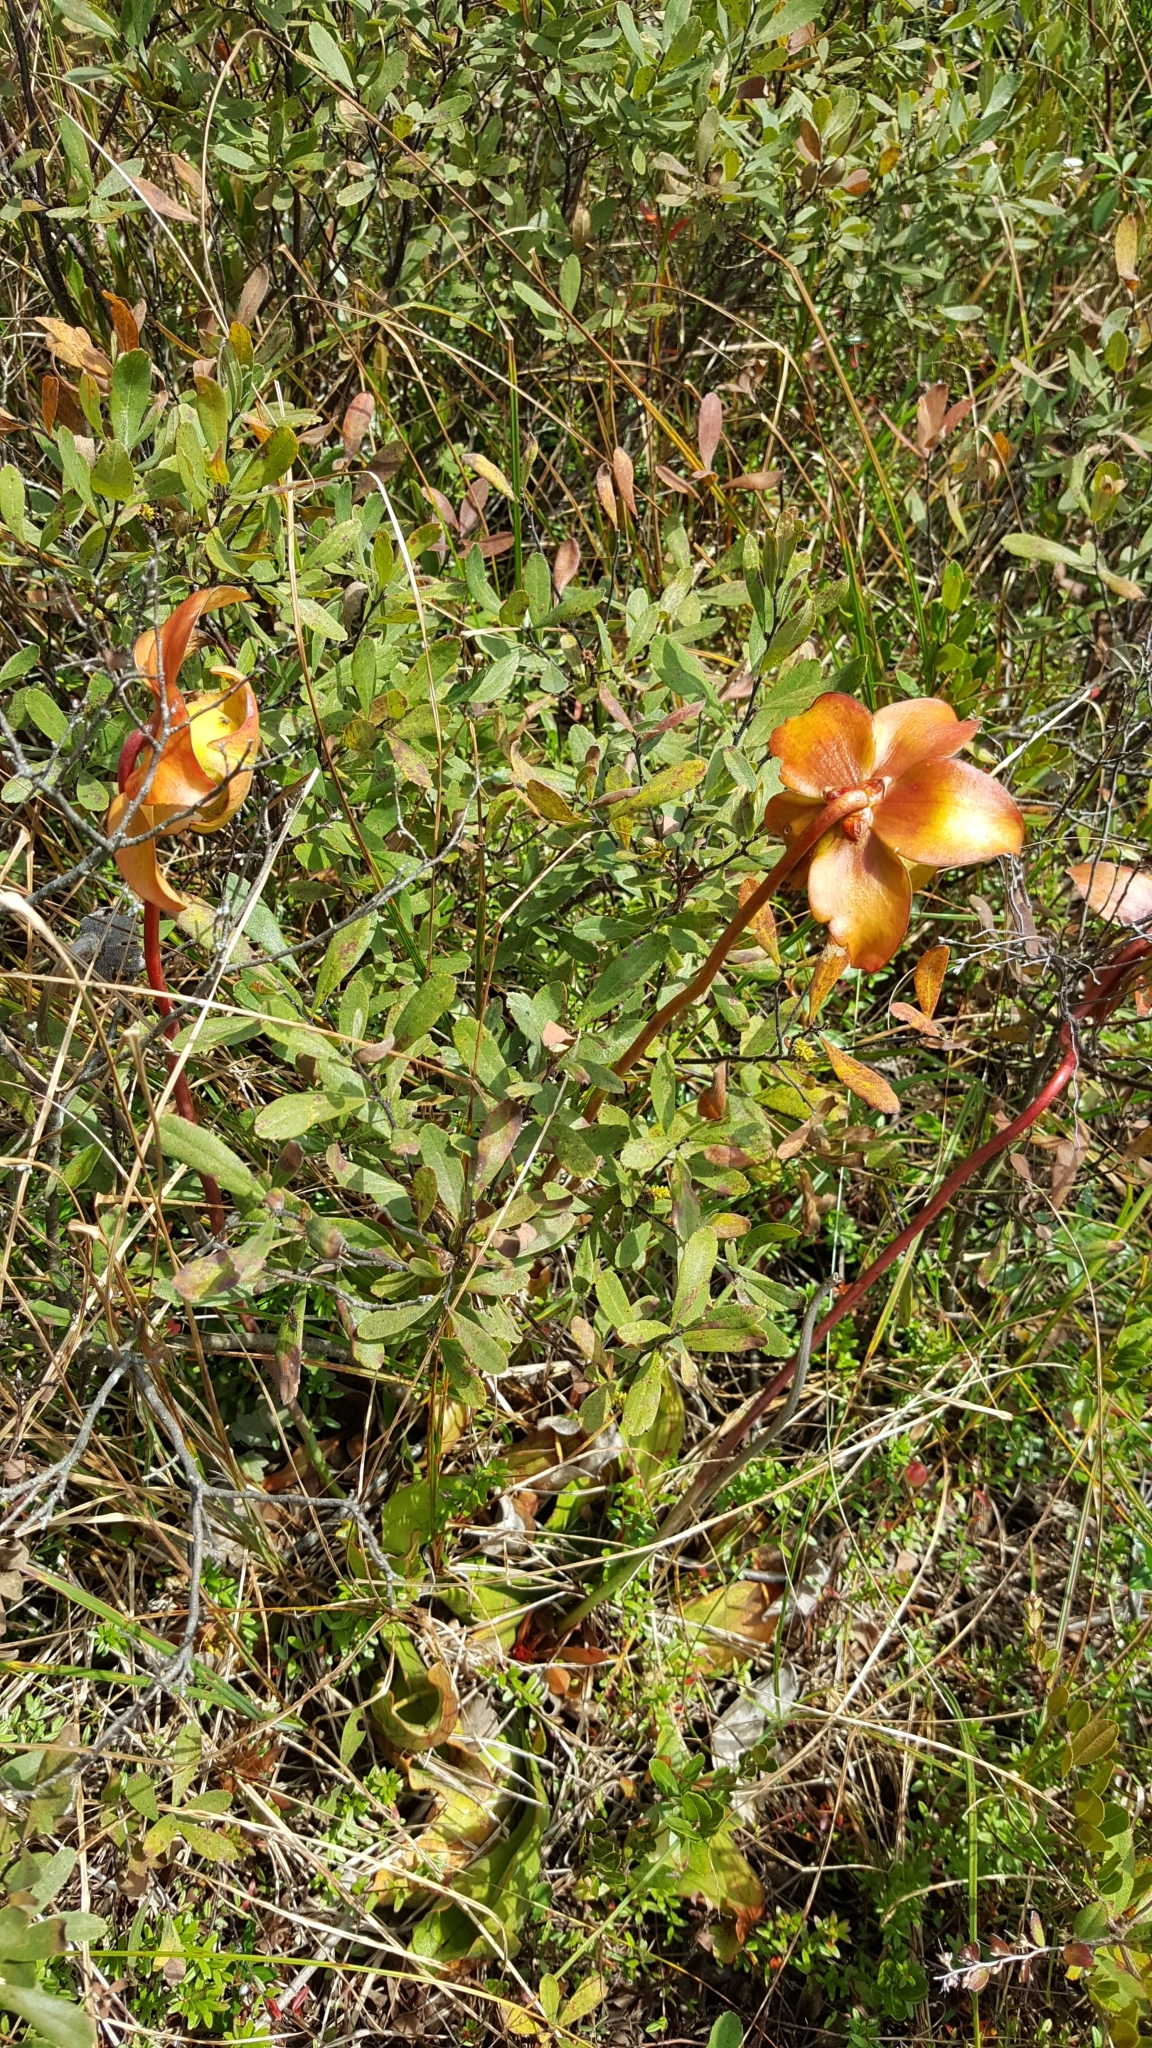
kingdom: Plantae
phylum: Tracheophyta
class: Magnoliopsida
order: Ericales
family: Sarraceniaceae
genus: Sarracenia
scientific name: Sarracenia purpurea
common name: Pitcherplant
